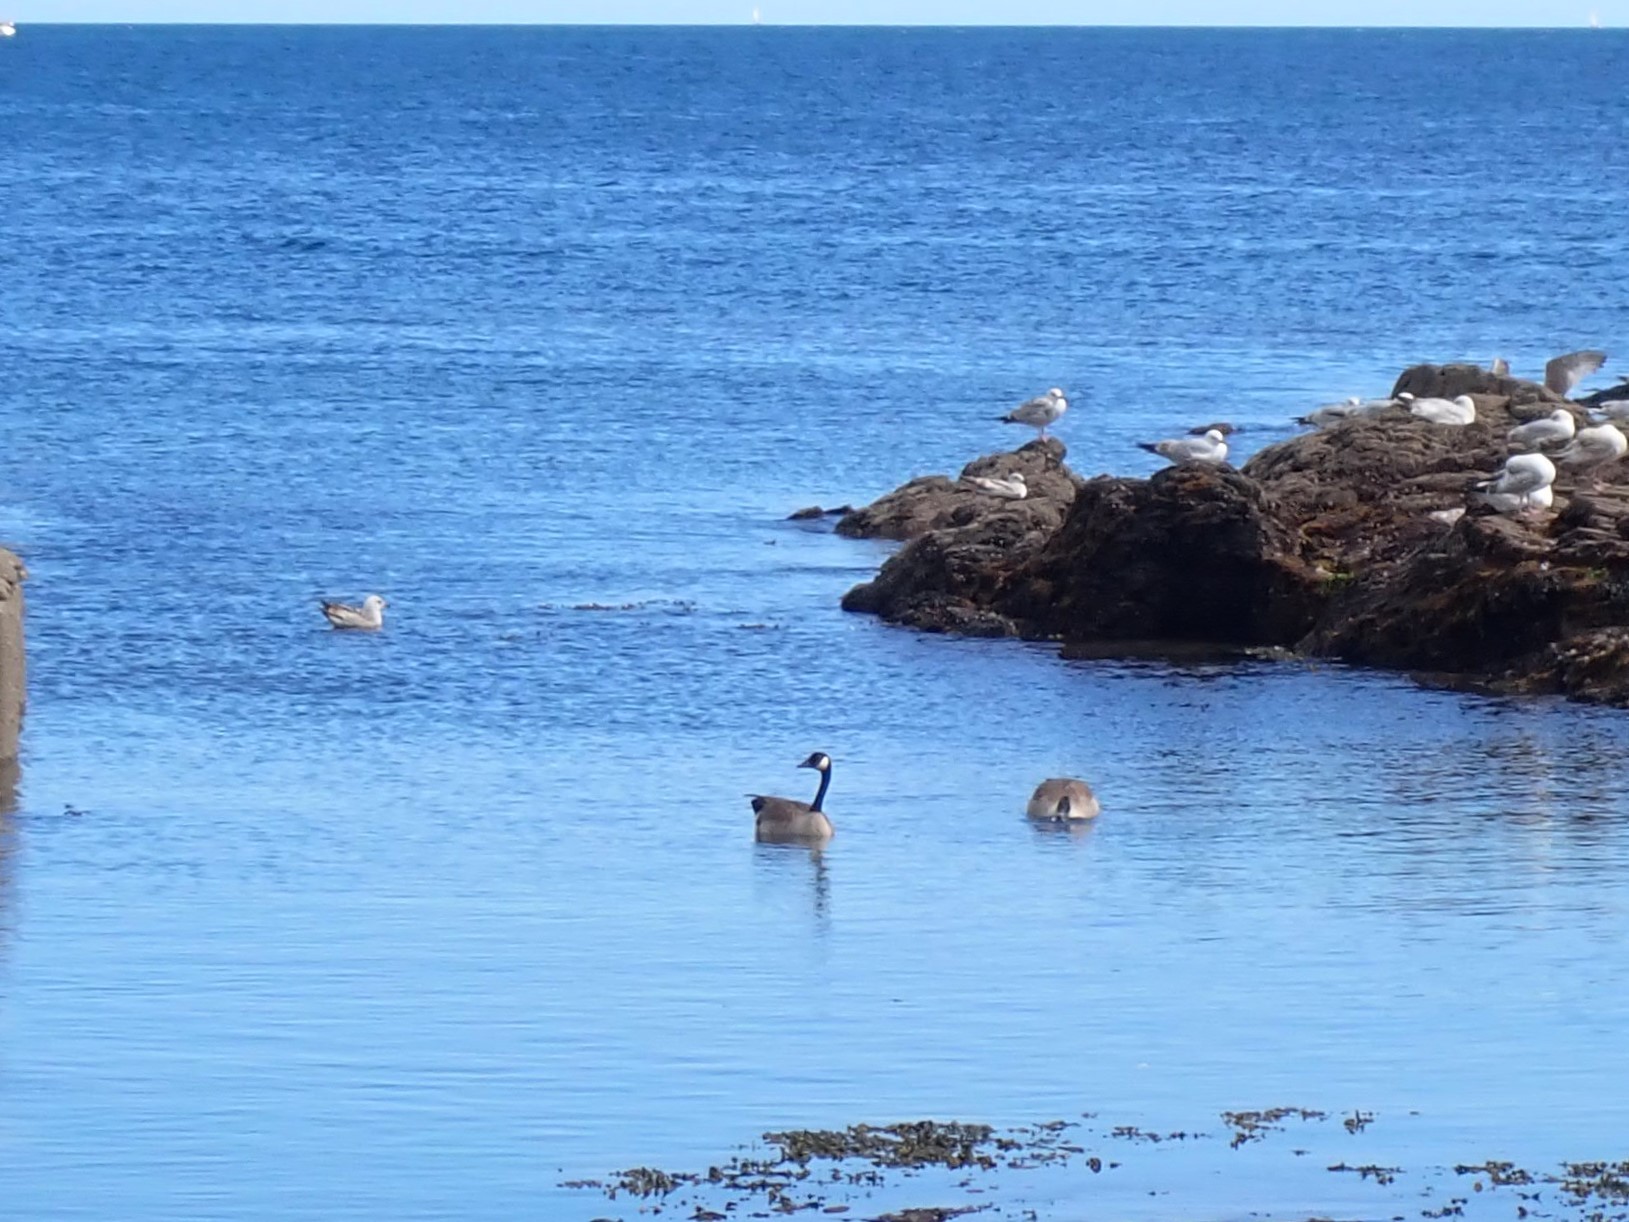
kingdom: Animalia
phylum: Chordata
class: Aves
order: Anseriformes
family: Anatidae
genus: Branta
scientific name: Branta canadensis
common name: Canada goose
